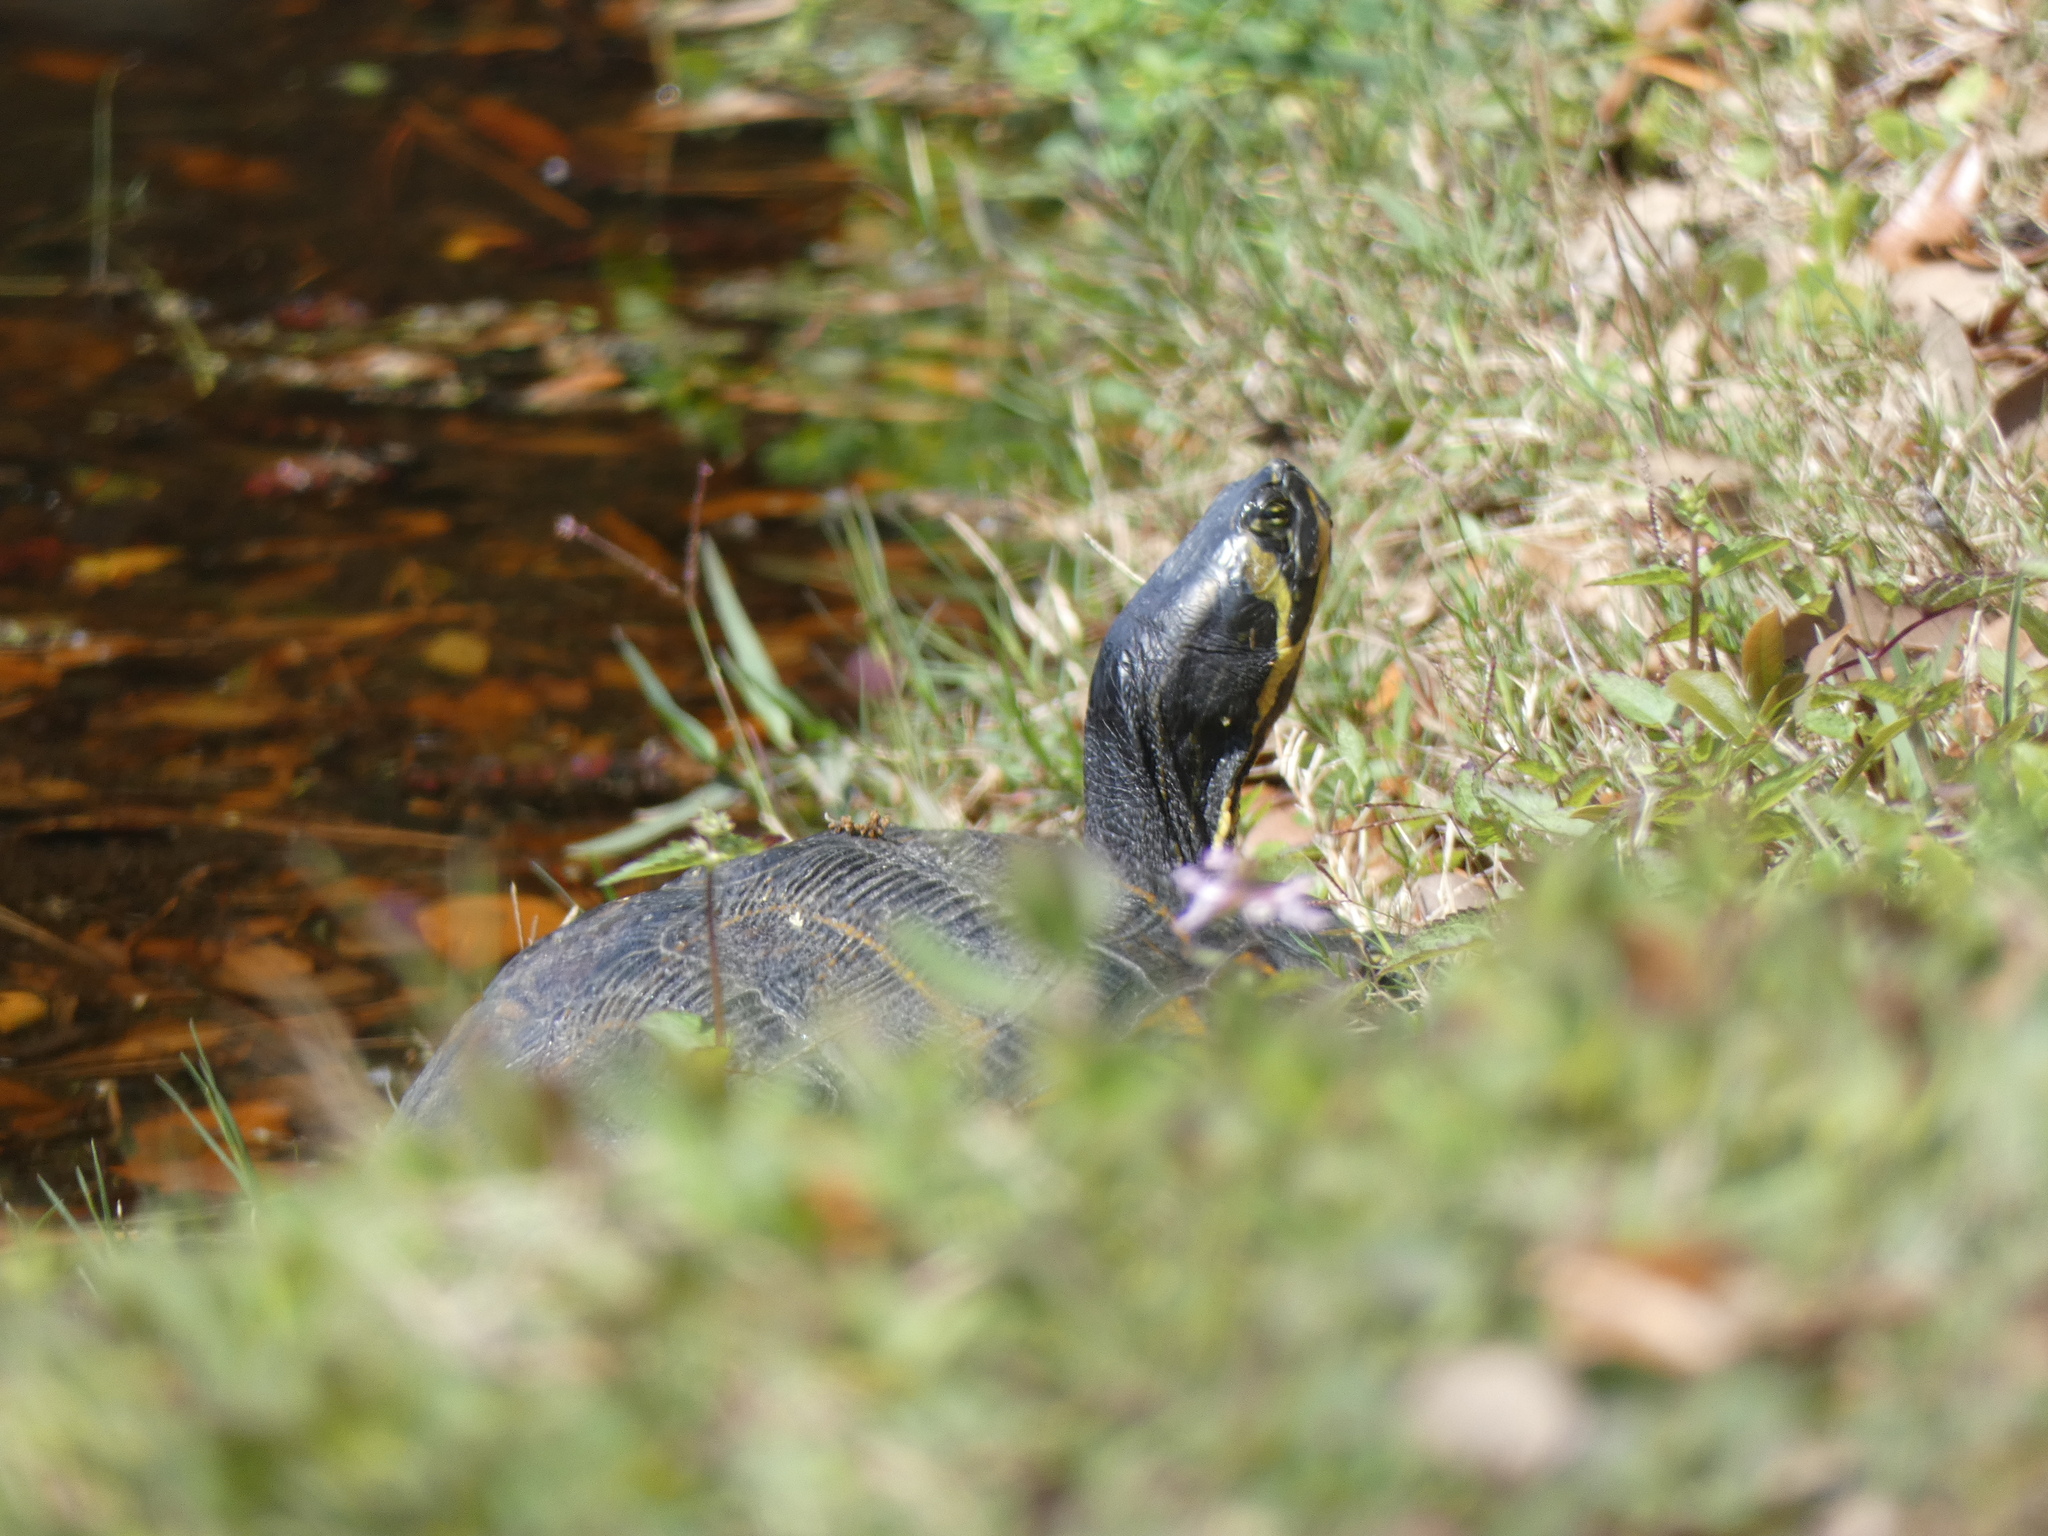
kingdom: Animalia
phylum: Chordata
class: Testudines
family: Emydidae
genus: Trachemys
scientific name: Trachemys scripta
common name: Slider
